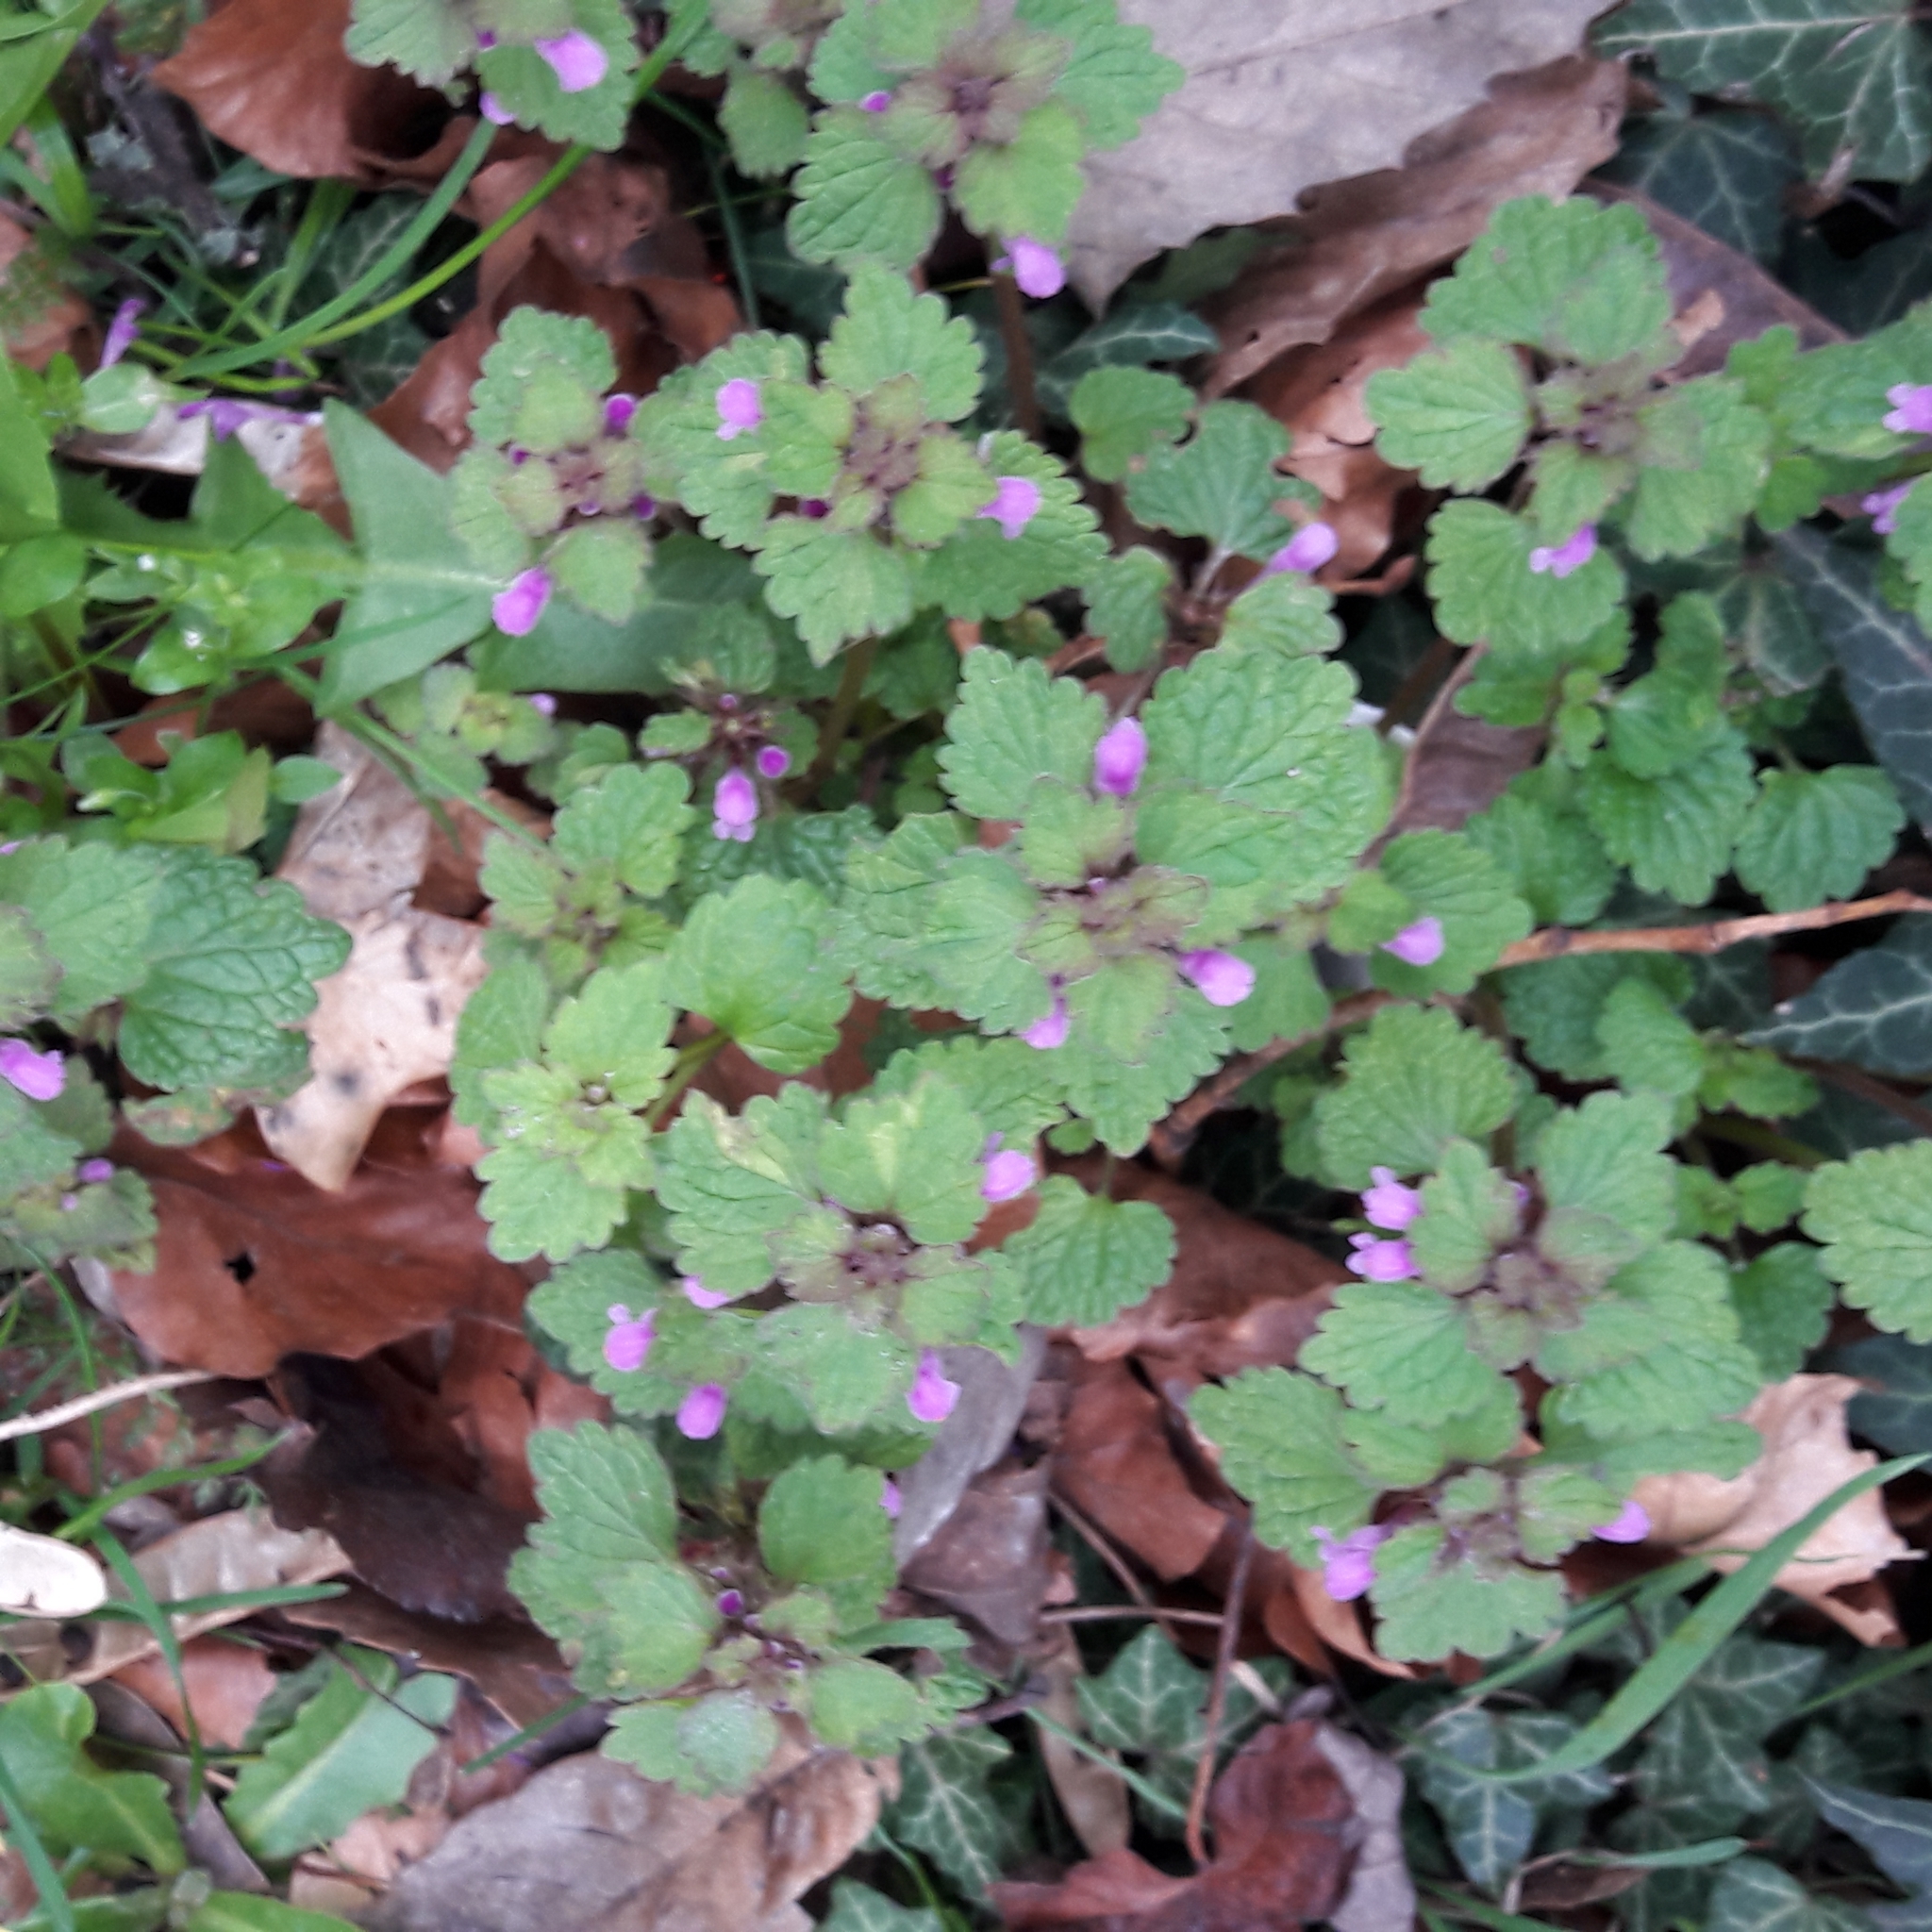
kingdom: Plantae
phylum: Tracheophyta
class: Magnoliopsida
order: Lamiales
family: Lamiaceae
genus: Lamium
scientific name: Lamium purpureum
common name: Red dead-nettle
